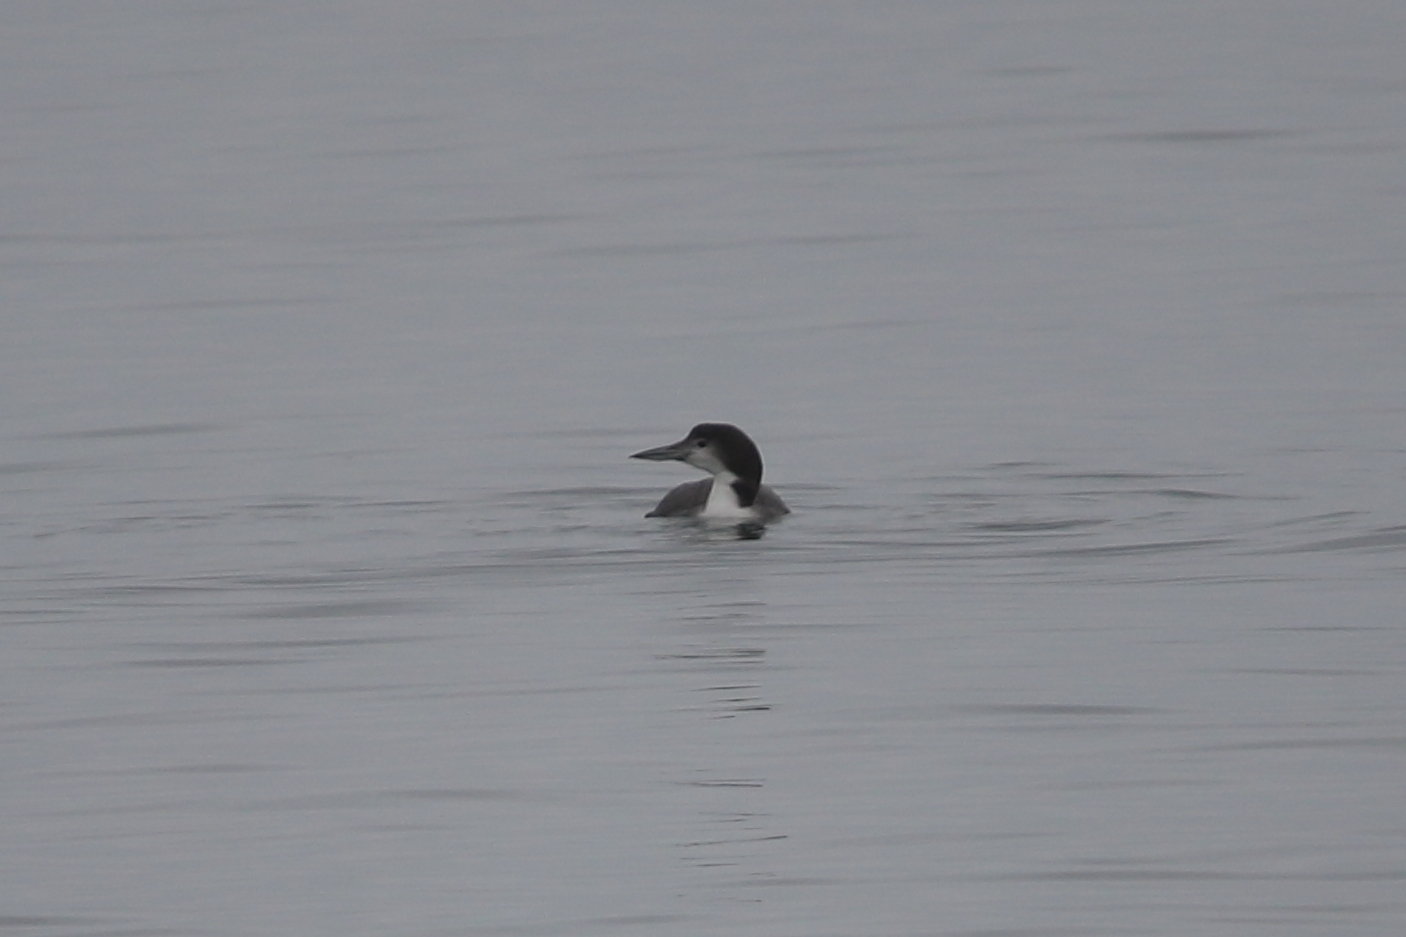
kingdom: Animalia
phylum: Chordata
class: Aves
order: Gaviiformes
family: Gaviidae
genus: Gavia
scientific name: Gavia immer
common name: Common loon
